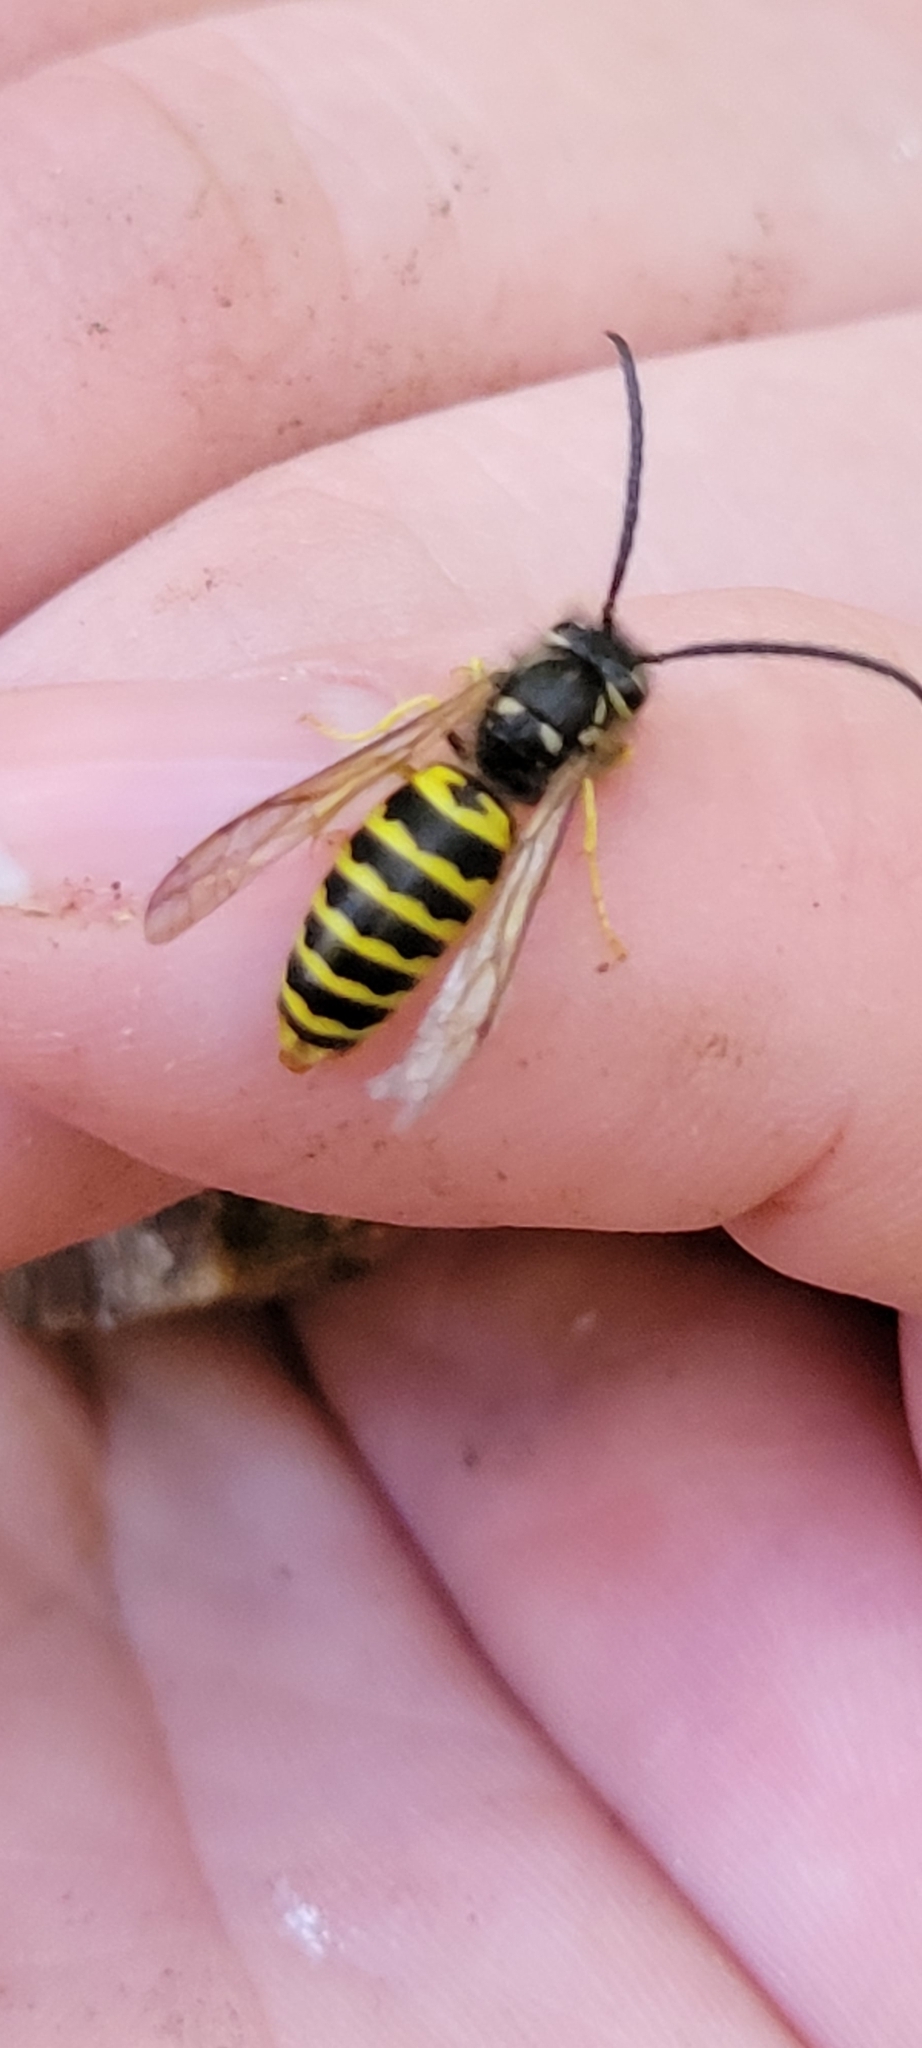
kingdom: Animalia
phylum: Arthropoda
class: Insecta
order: Hymenoptera
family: Vespidae
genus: Vespula
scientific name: Vespula maculifrons
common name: Eastern yellowjacket
